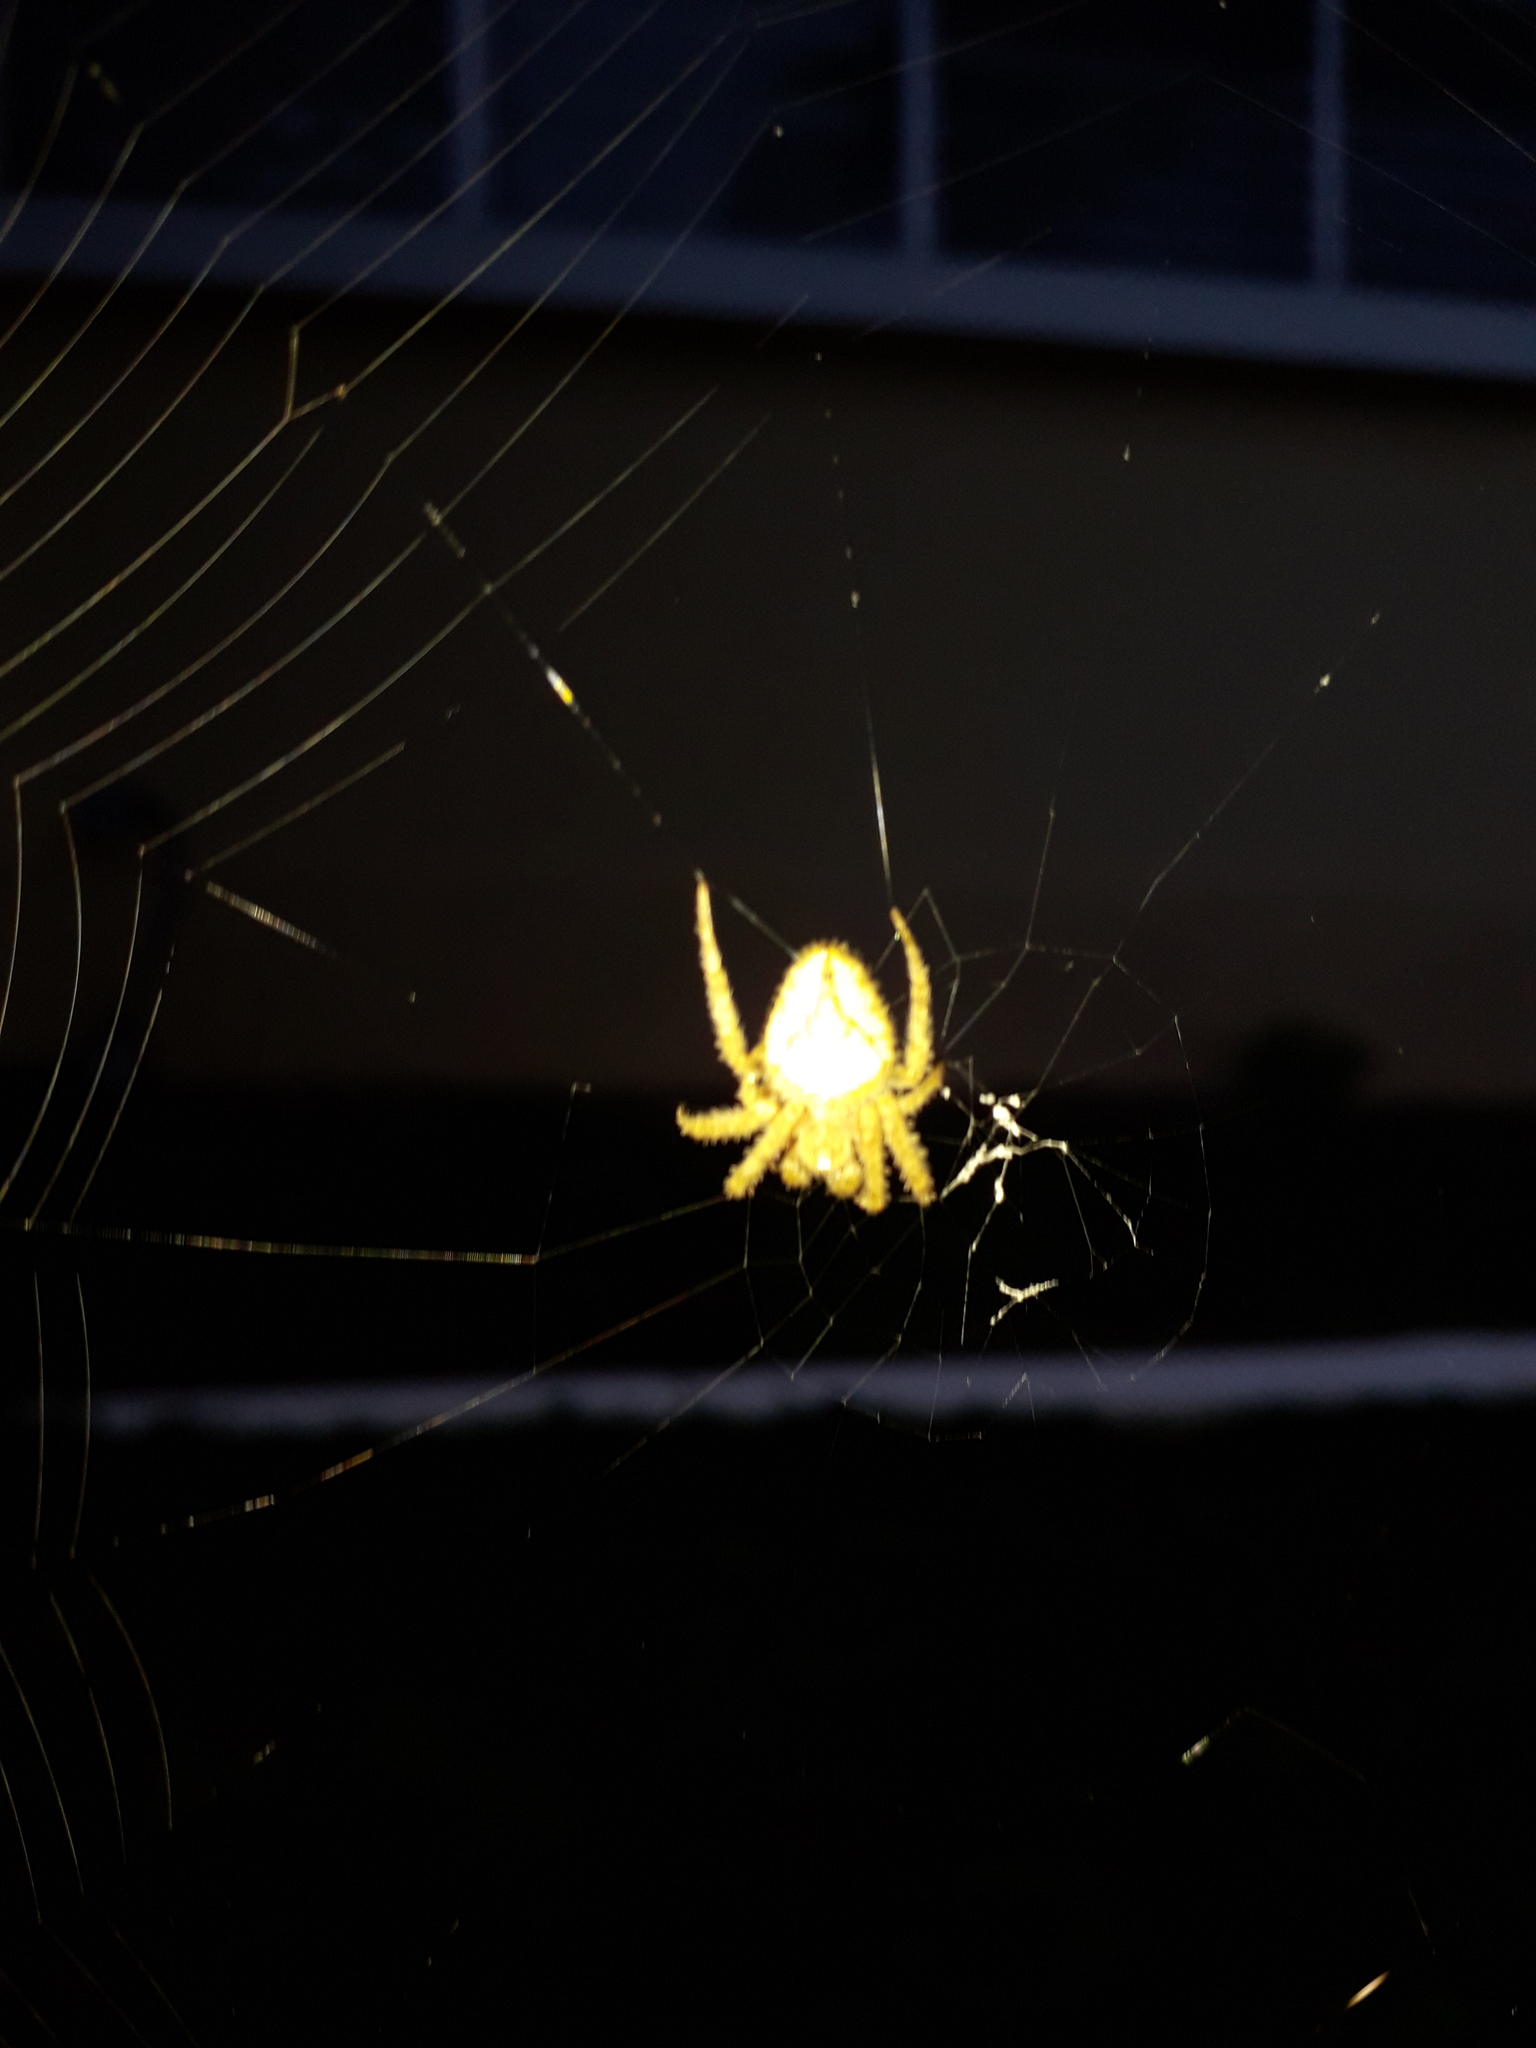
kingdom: Animalia
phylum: Arthropoda
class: Arachnida
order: Araneae
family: Araneidae
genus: Eriophora
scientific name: Eriophora edax
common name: Orb weavers
